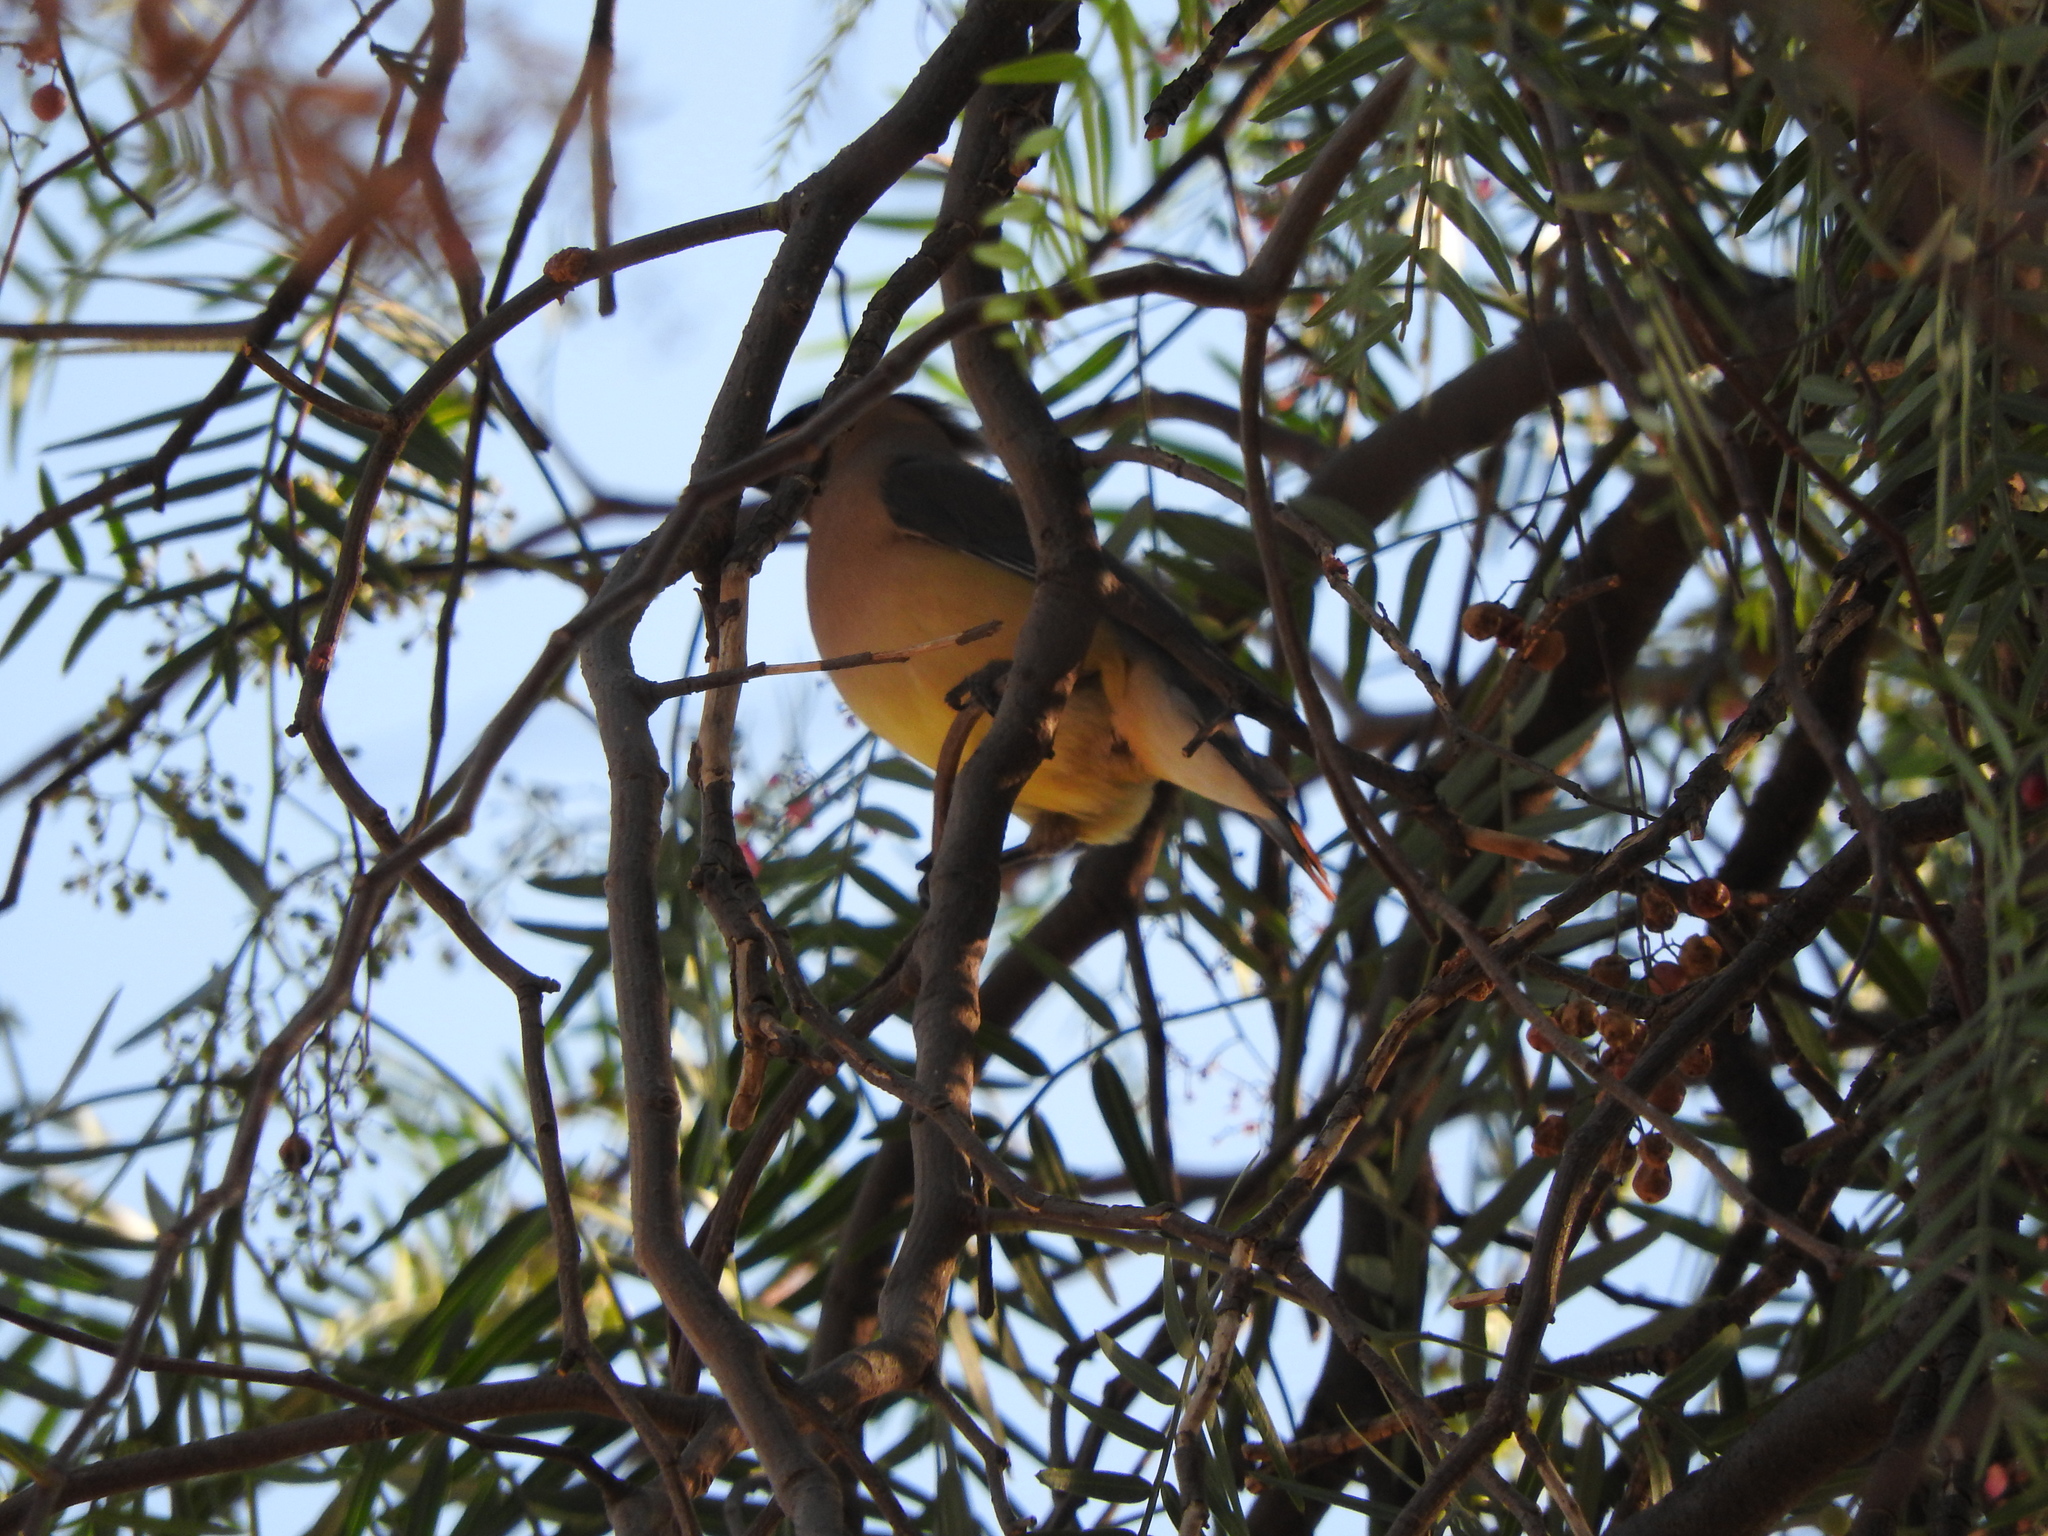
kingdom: Animalia
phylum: Chordata
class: Aves
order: Passeriformes
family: Bombycillidae
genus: Bombycilla
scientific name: Bombycilla cedrorum
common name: Cedar waxwing
